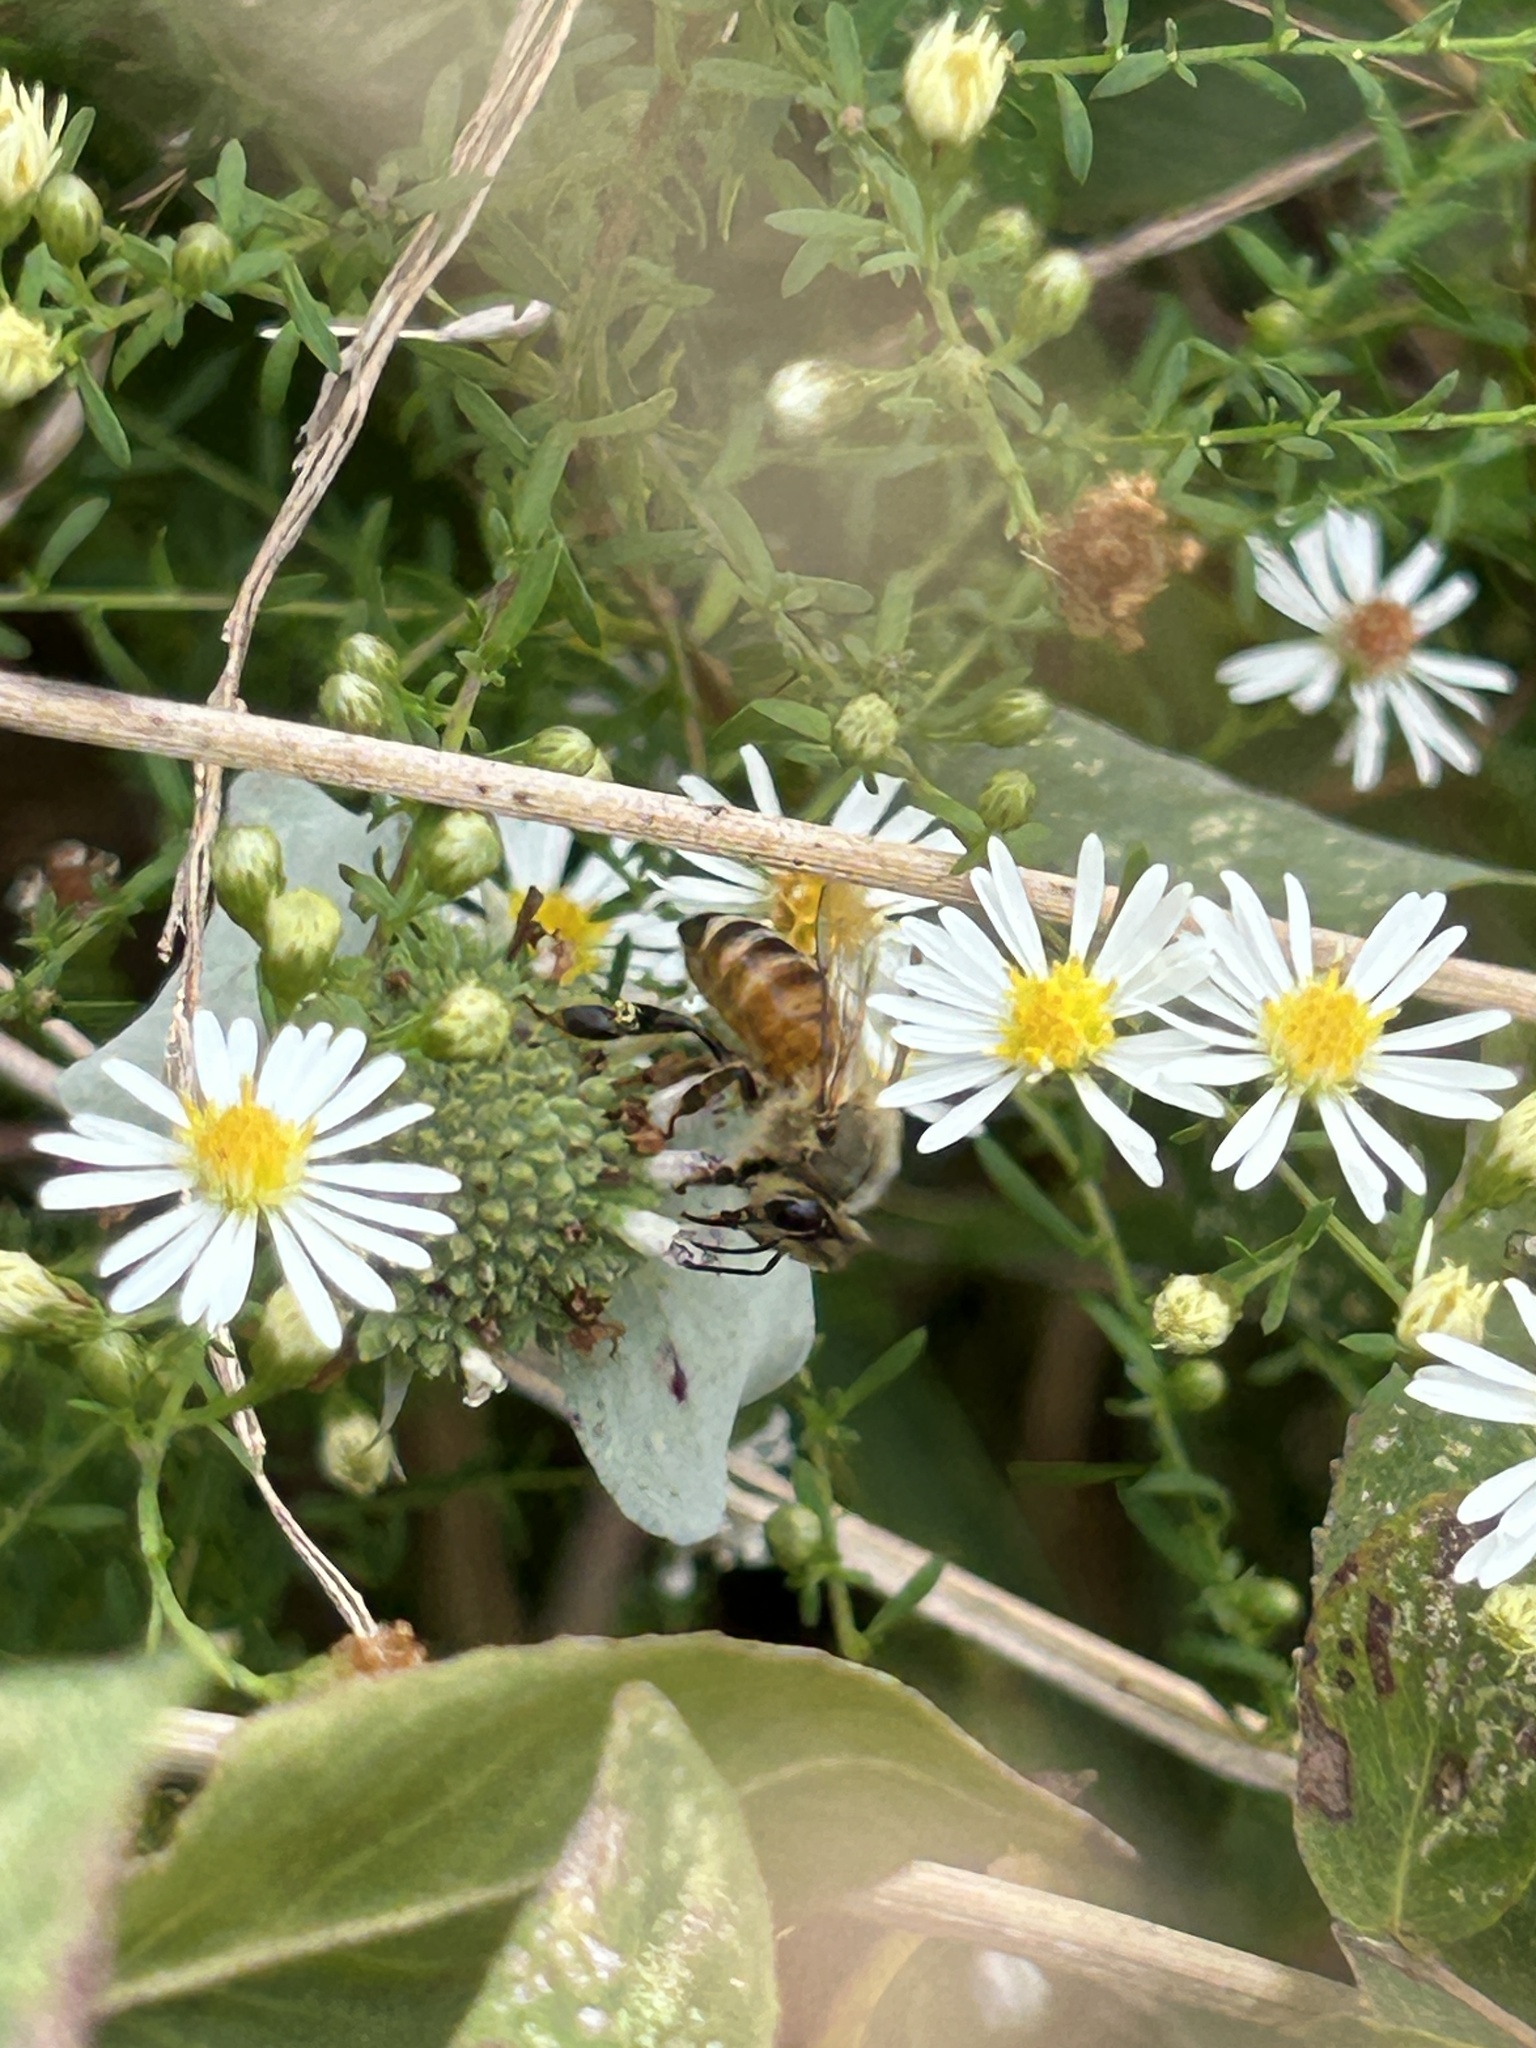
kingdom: Animalia
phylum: Arthropoda
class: Insecta
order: Hymenoptera
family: Apidae
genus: Apis
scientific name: Apis mellifera
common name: Honey bee
